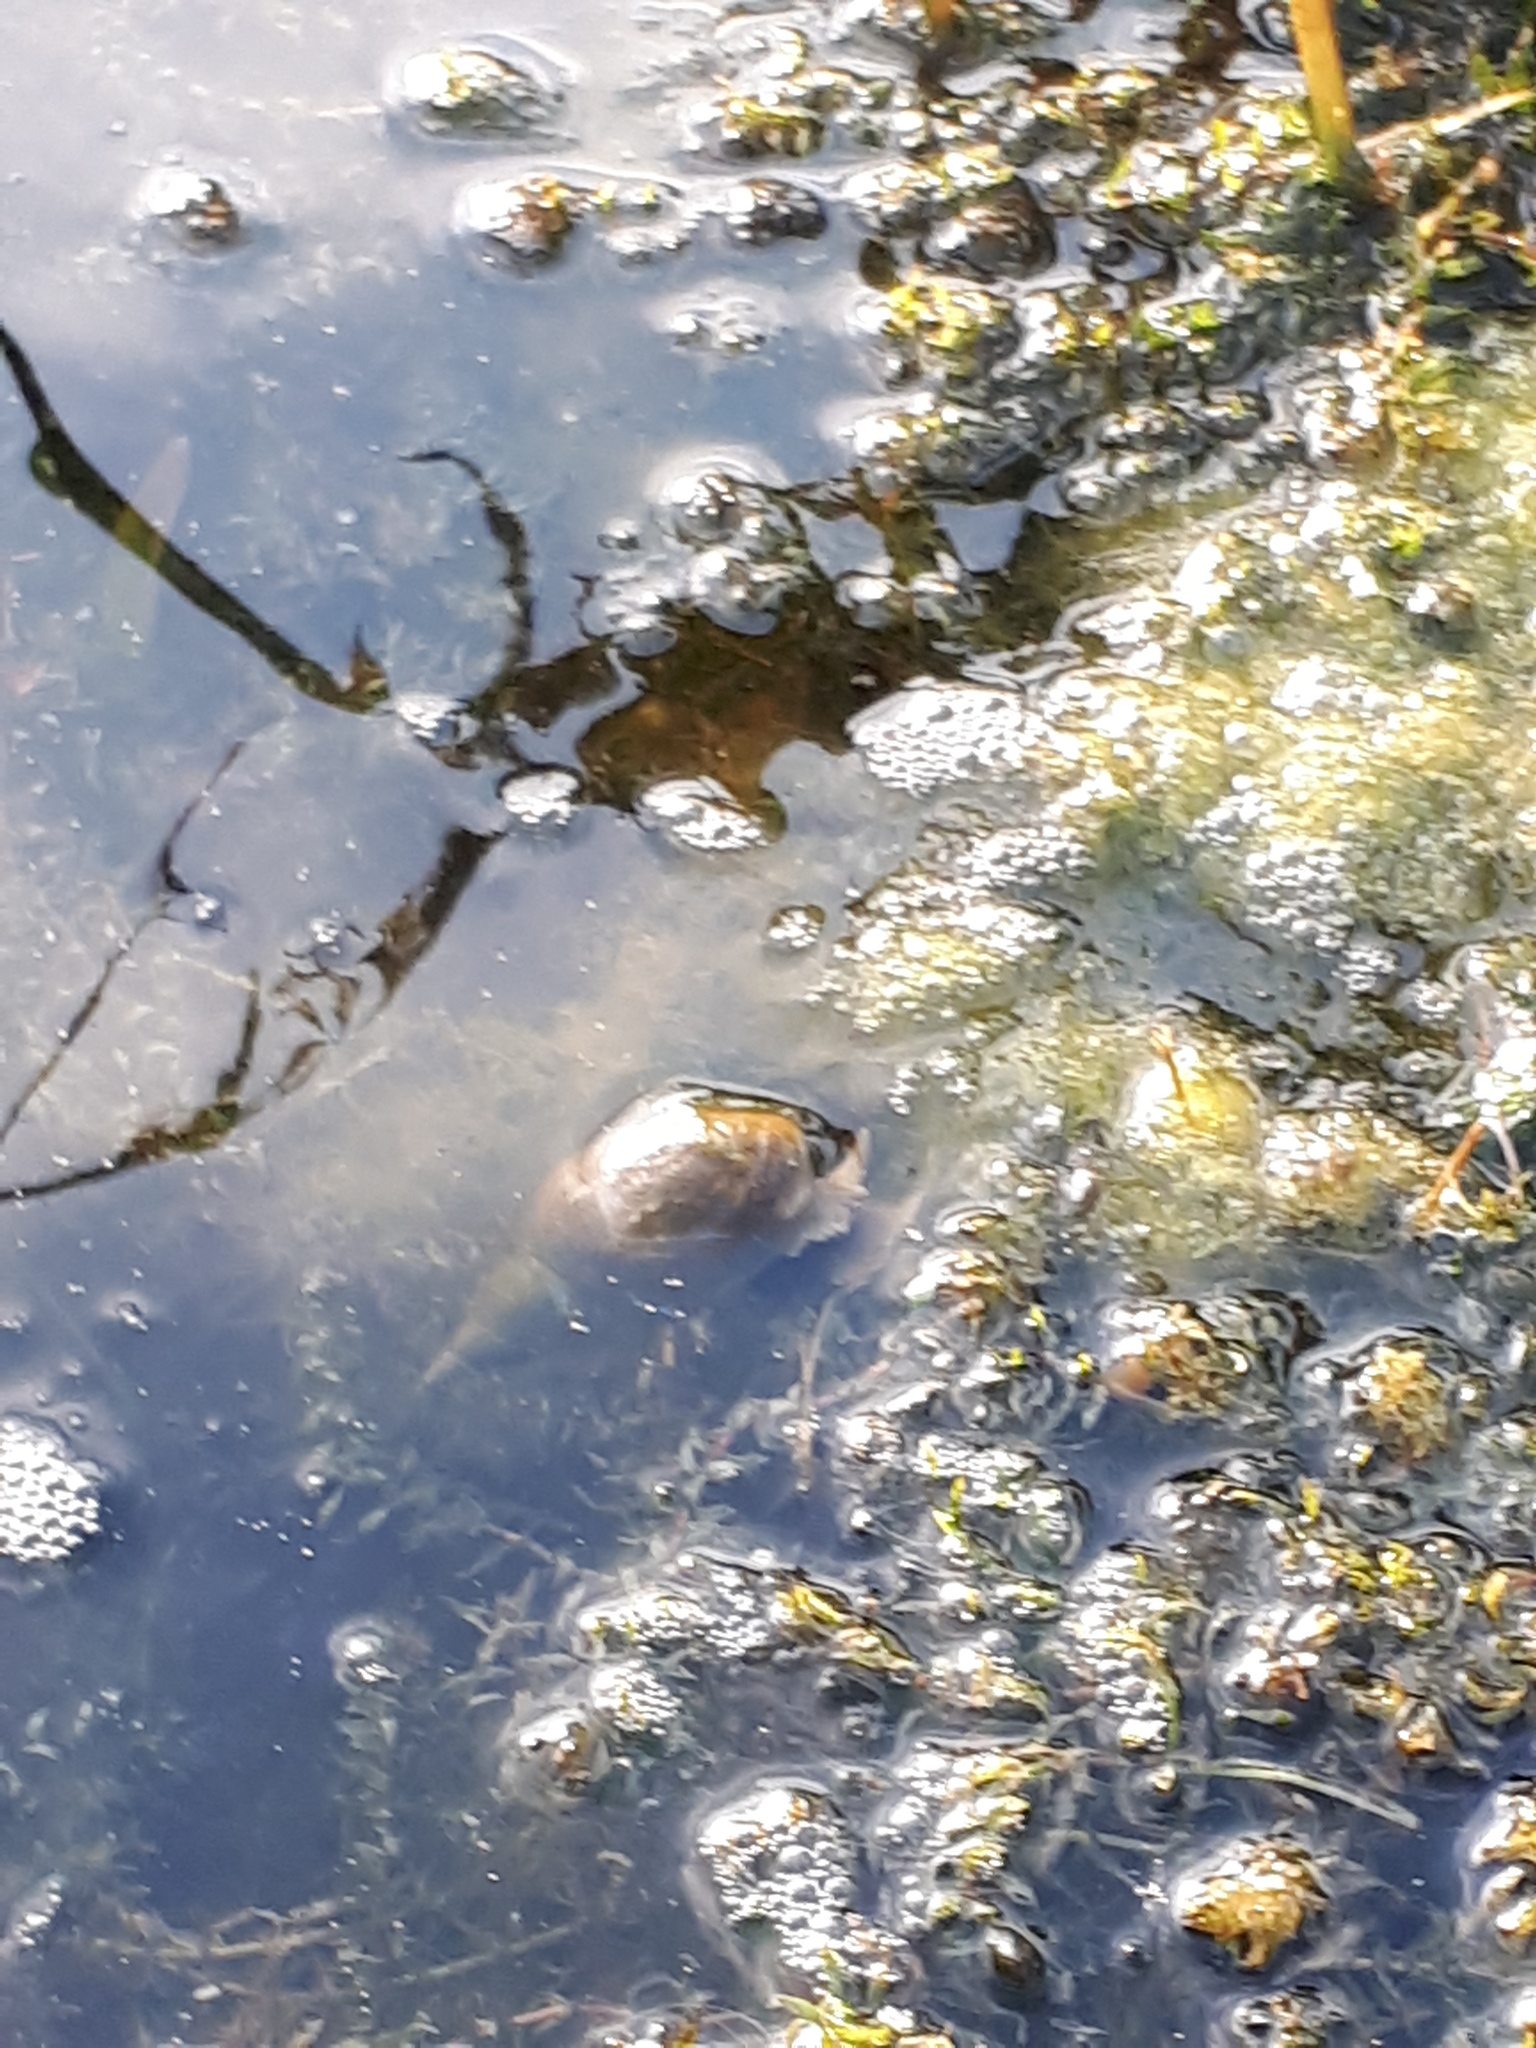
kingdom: Animalia
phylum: Mollusca
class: Gastropoda
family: Lymnaeidae
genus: Lymnaea
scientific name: Lymnaea stagnalis
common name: Great pond snail
